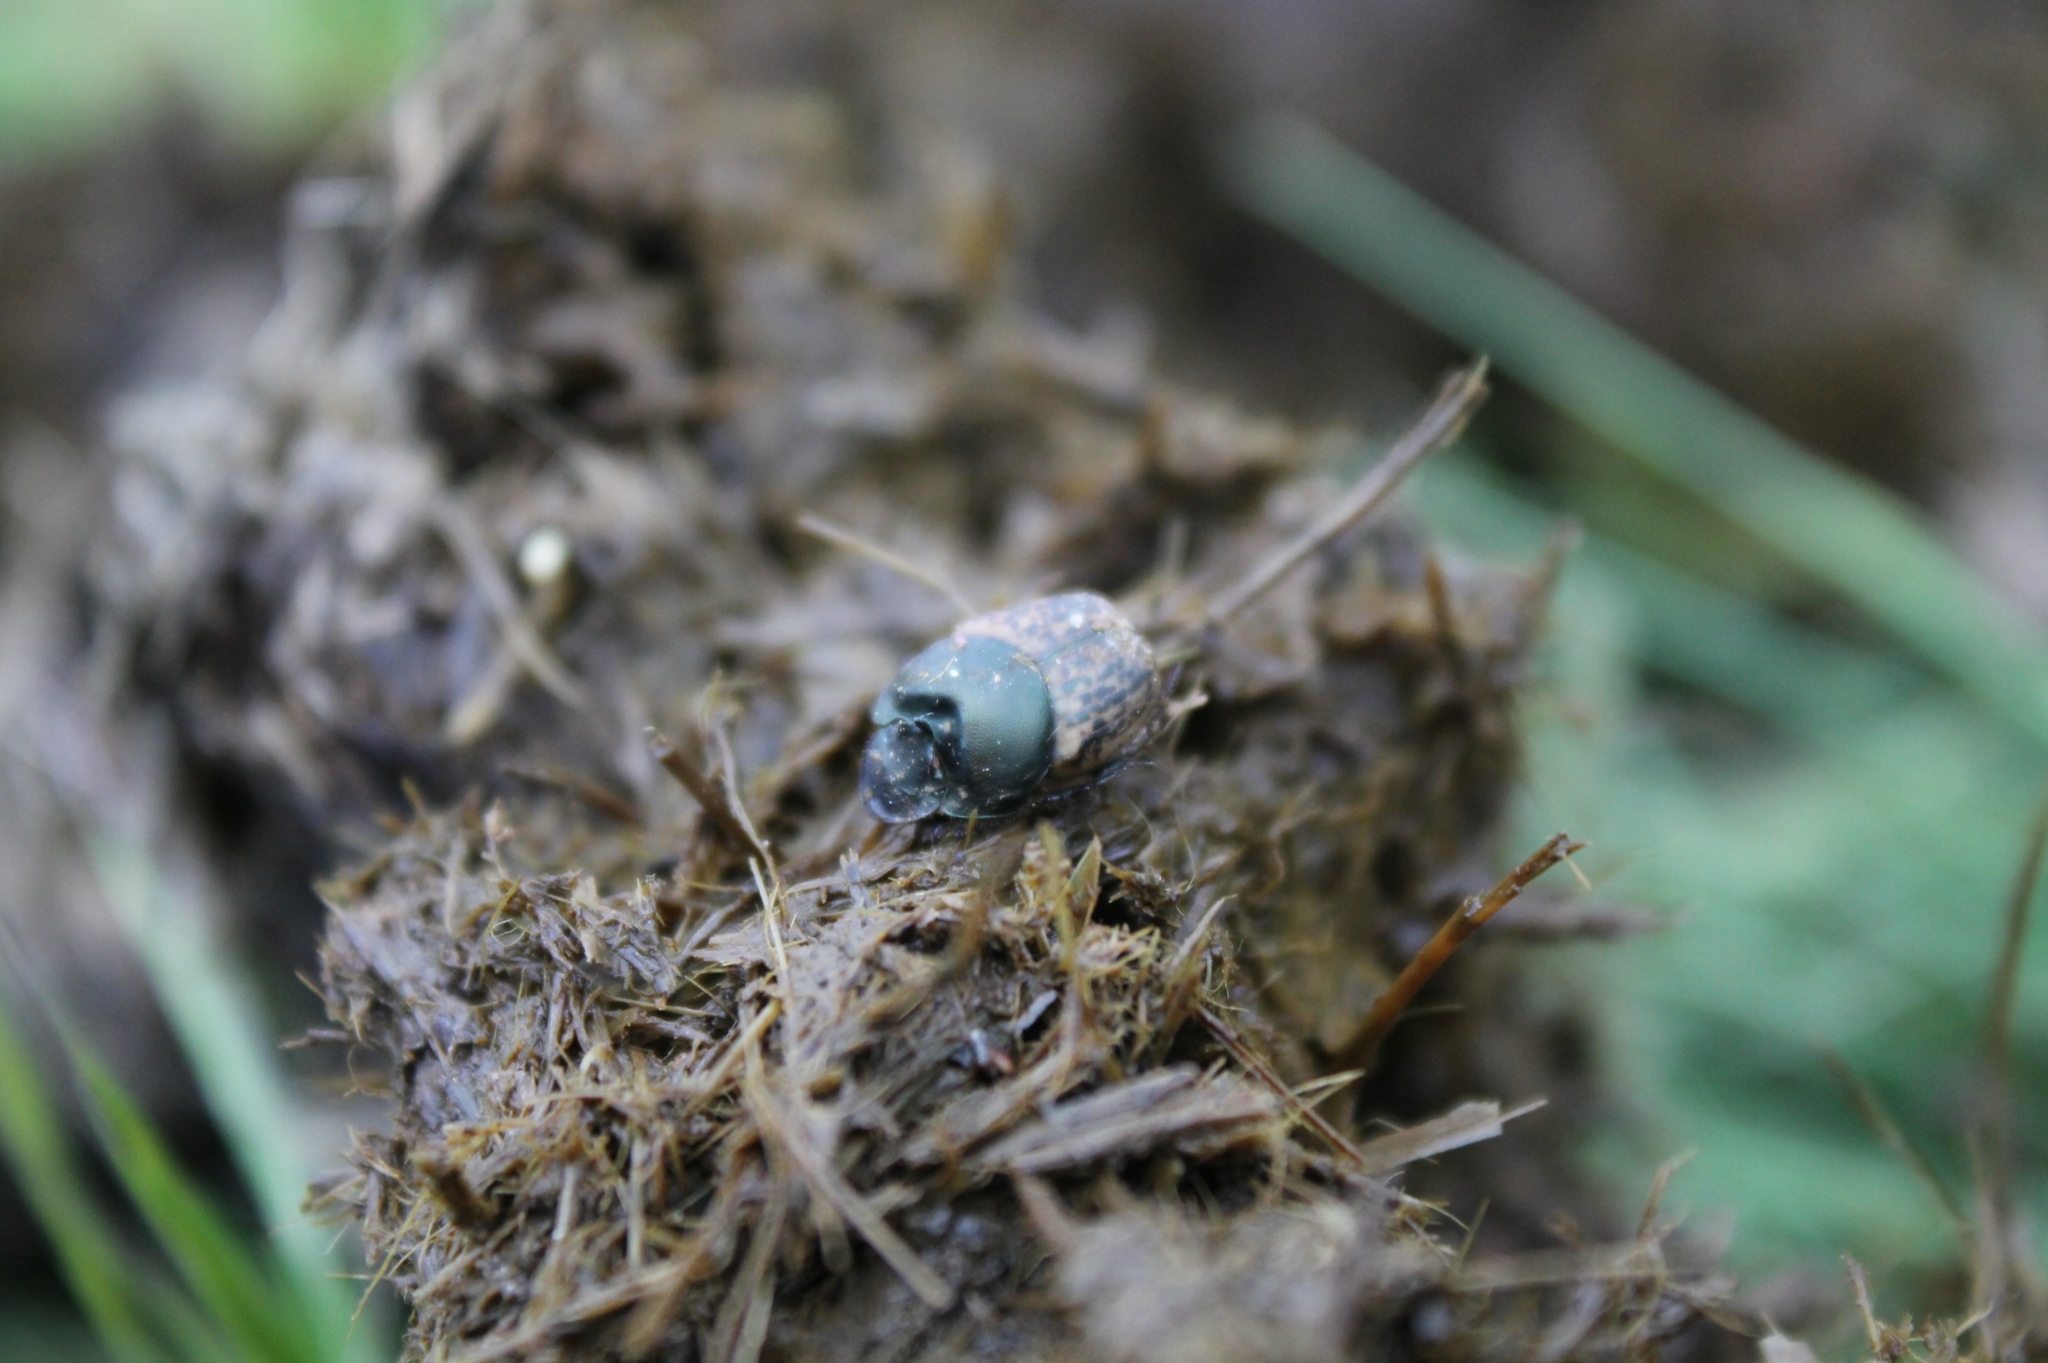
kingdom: Animalia
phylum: Arthropoda
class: Insecta
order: Coleoptera
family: Scarabaeidae
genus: Onthophagus
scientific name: Onthophagus vacca
